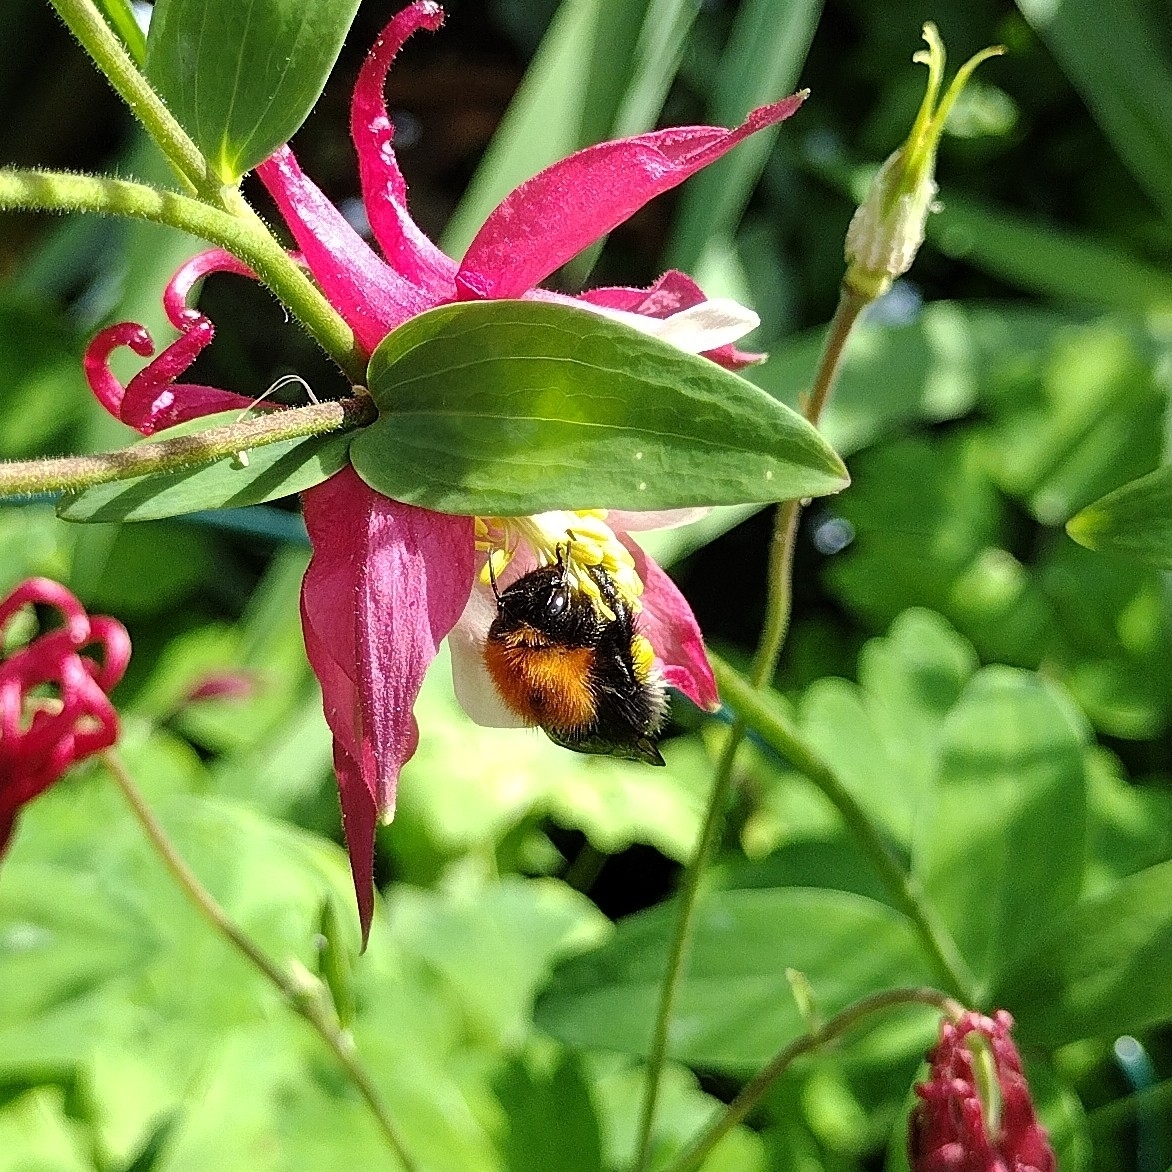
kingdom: Animalia
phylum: Arthropoda
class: Insecta
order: Hymenoptera
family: Apidae
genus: Bombus
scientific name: Bombus hypnorum
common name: New garden bumblebee
